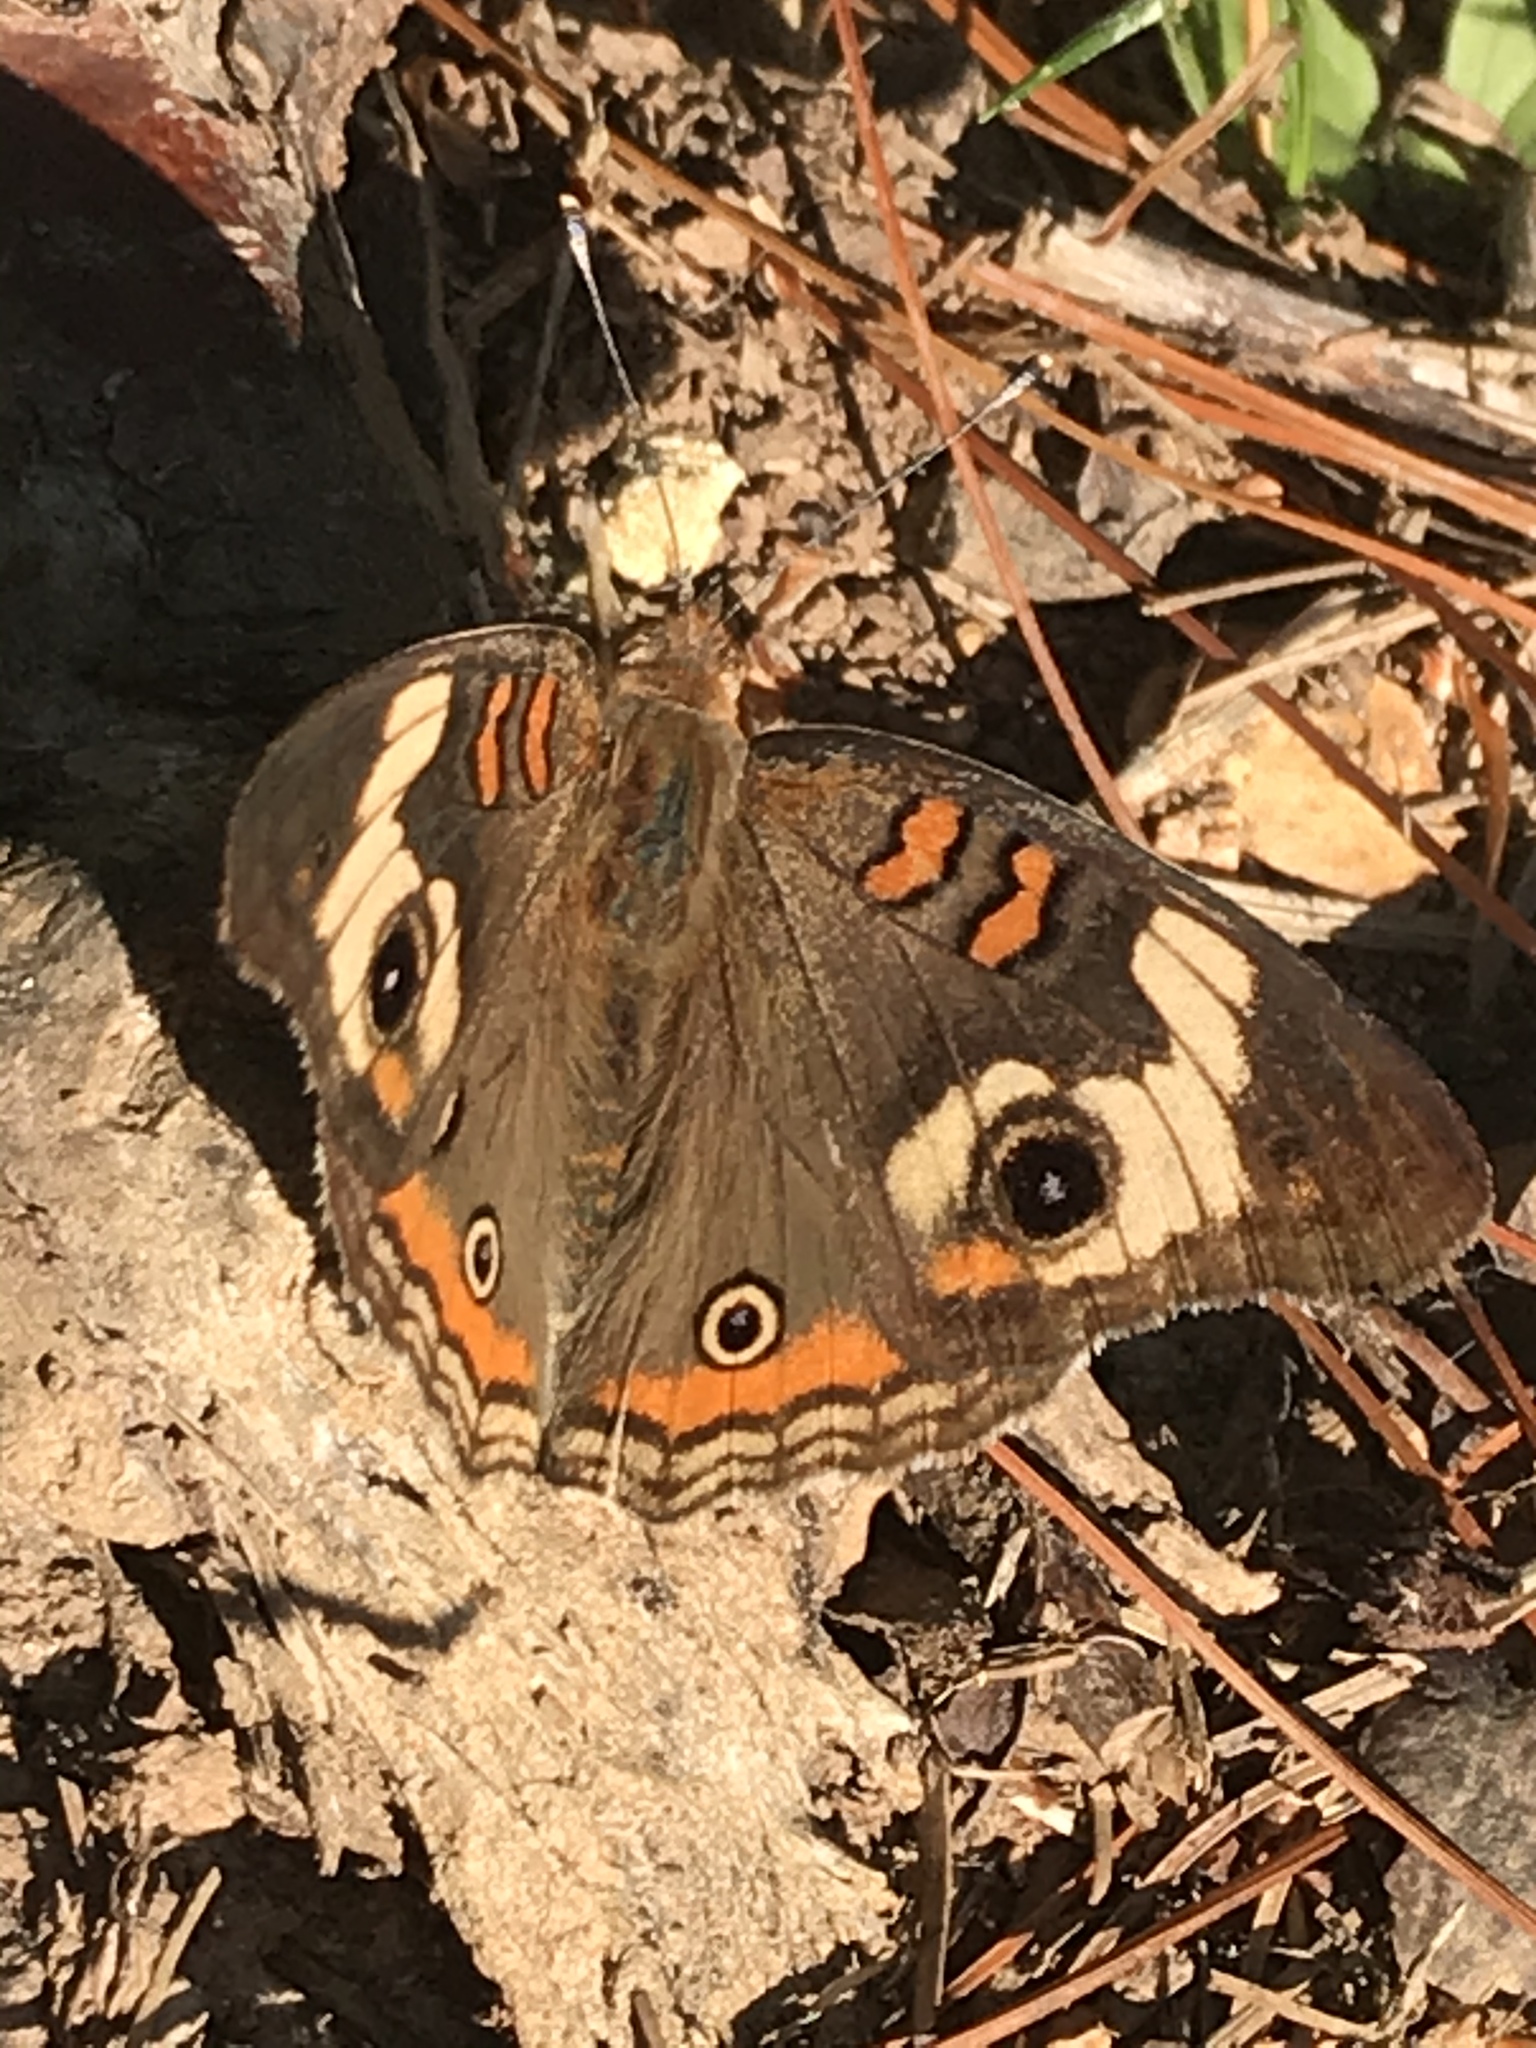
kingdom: Animalia
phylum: Arthropoda
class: Insecta
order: Lepidoptera
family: Nymphalidae
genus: Junonia
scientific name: Junonia coenia
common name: Common buckeye
